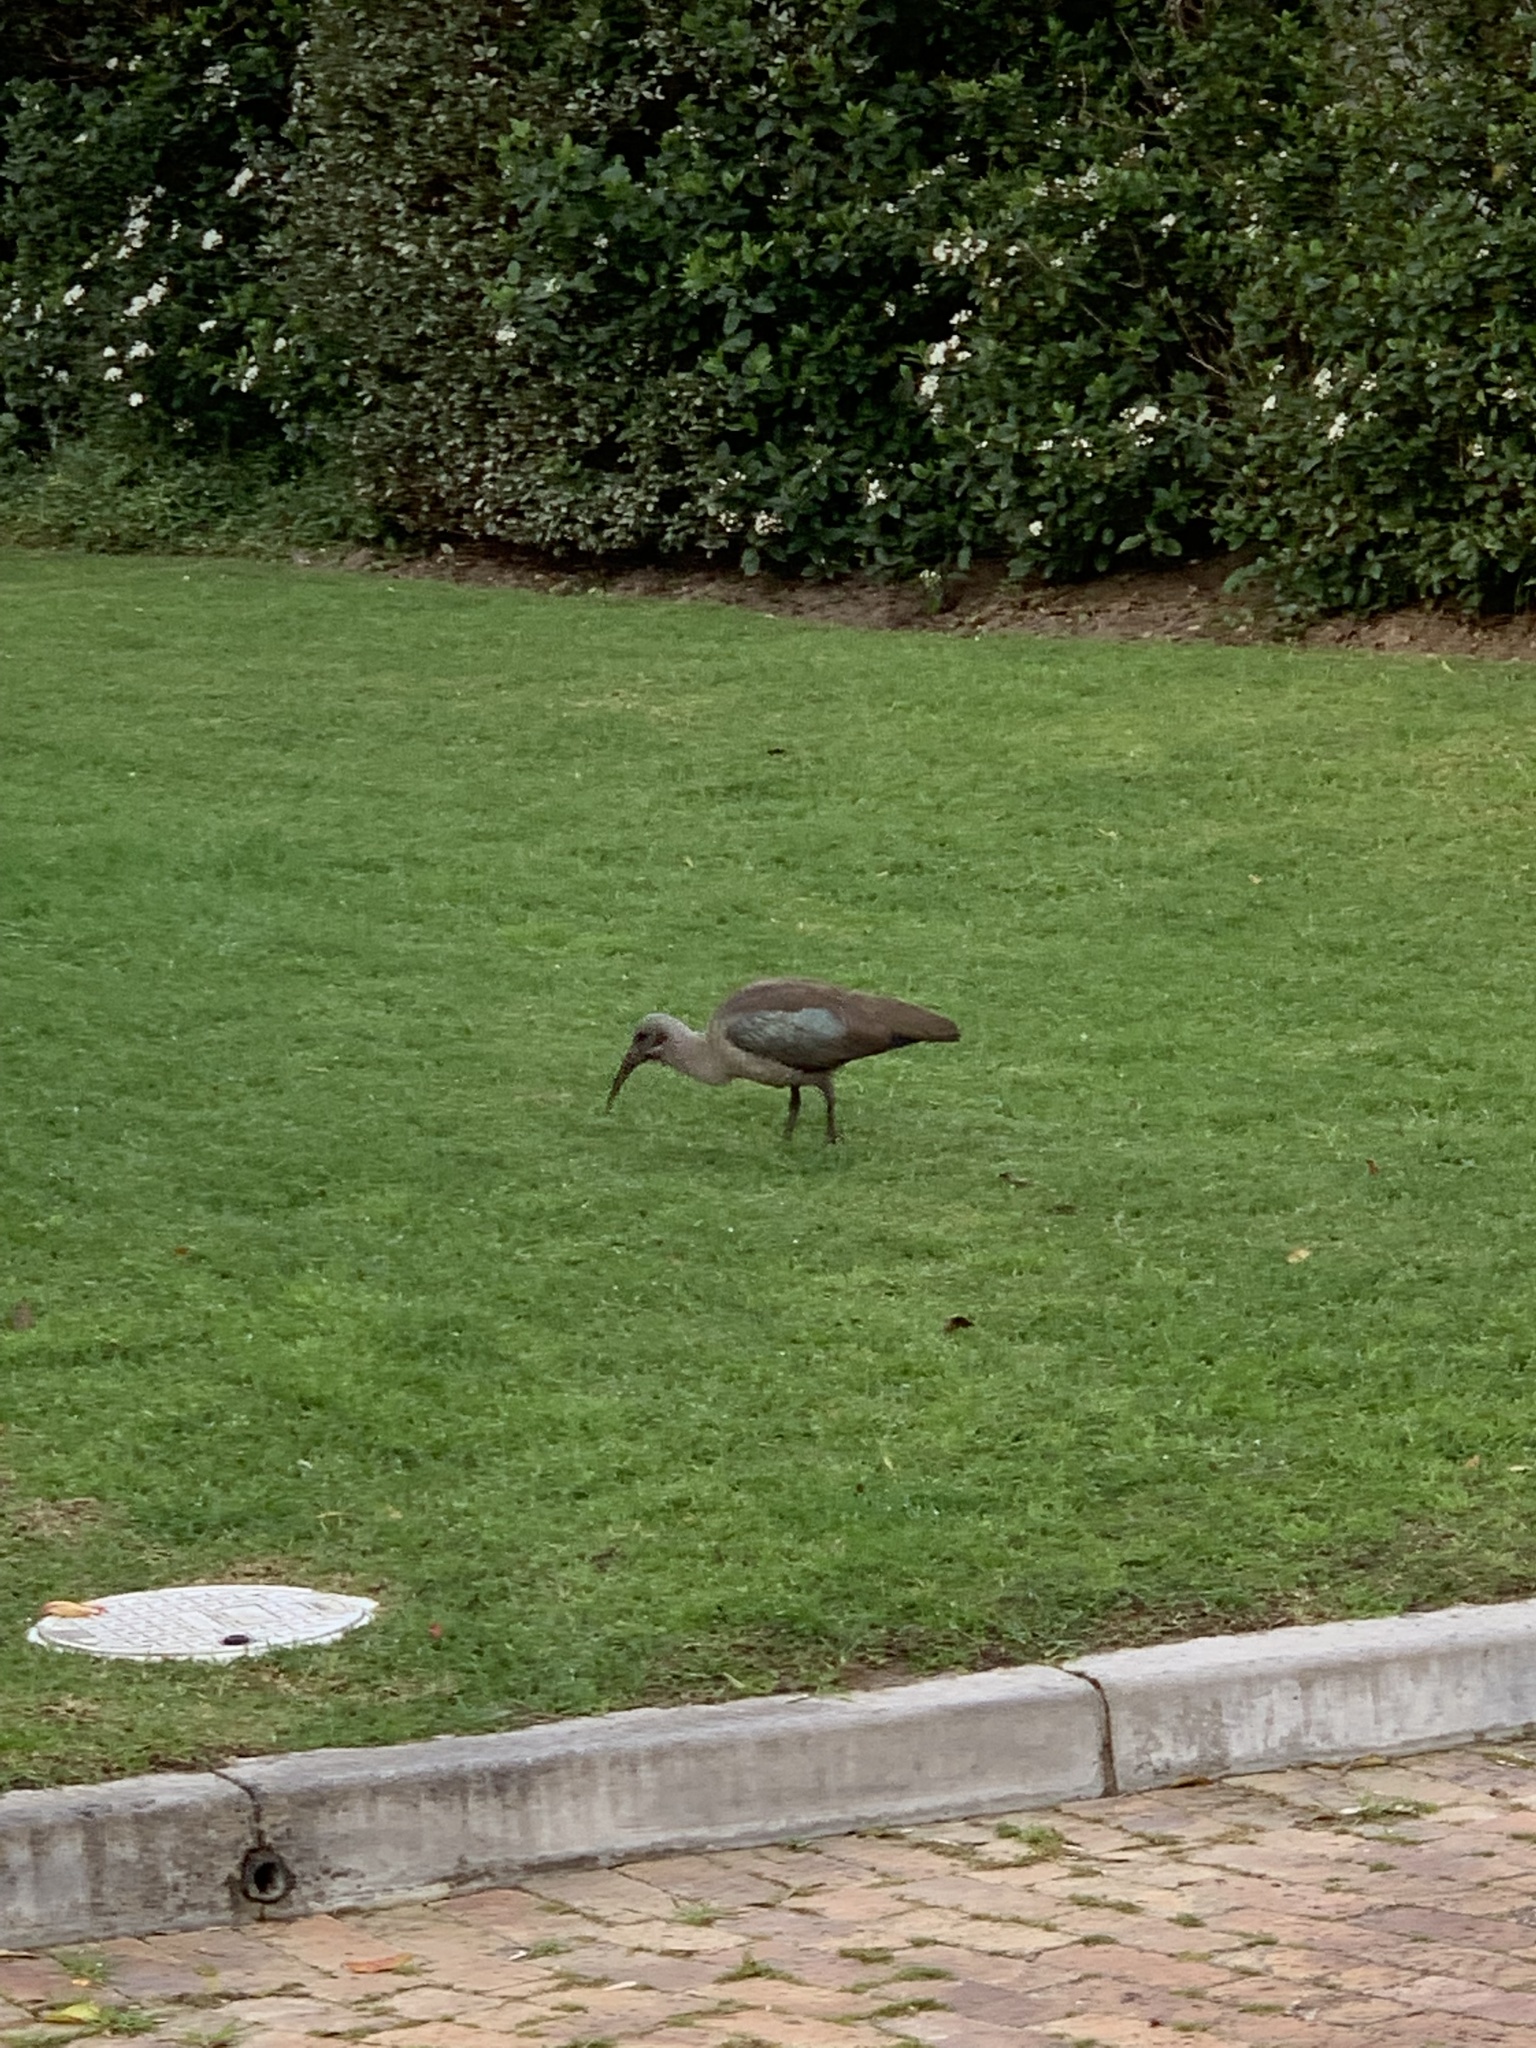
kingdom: Animalia
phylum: Chordata
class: Aves
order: Pelecaniformes
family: Threskiornithidae
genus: Bostrychia
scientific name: Bostrychia hagedash
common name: Hadada ibis
